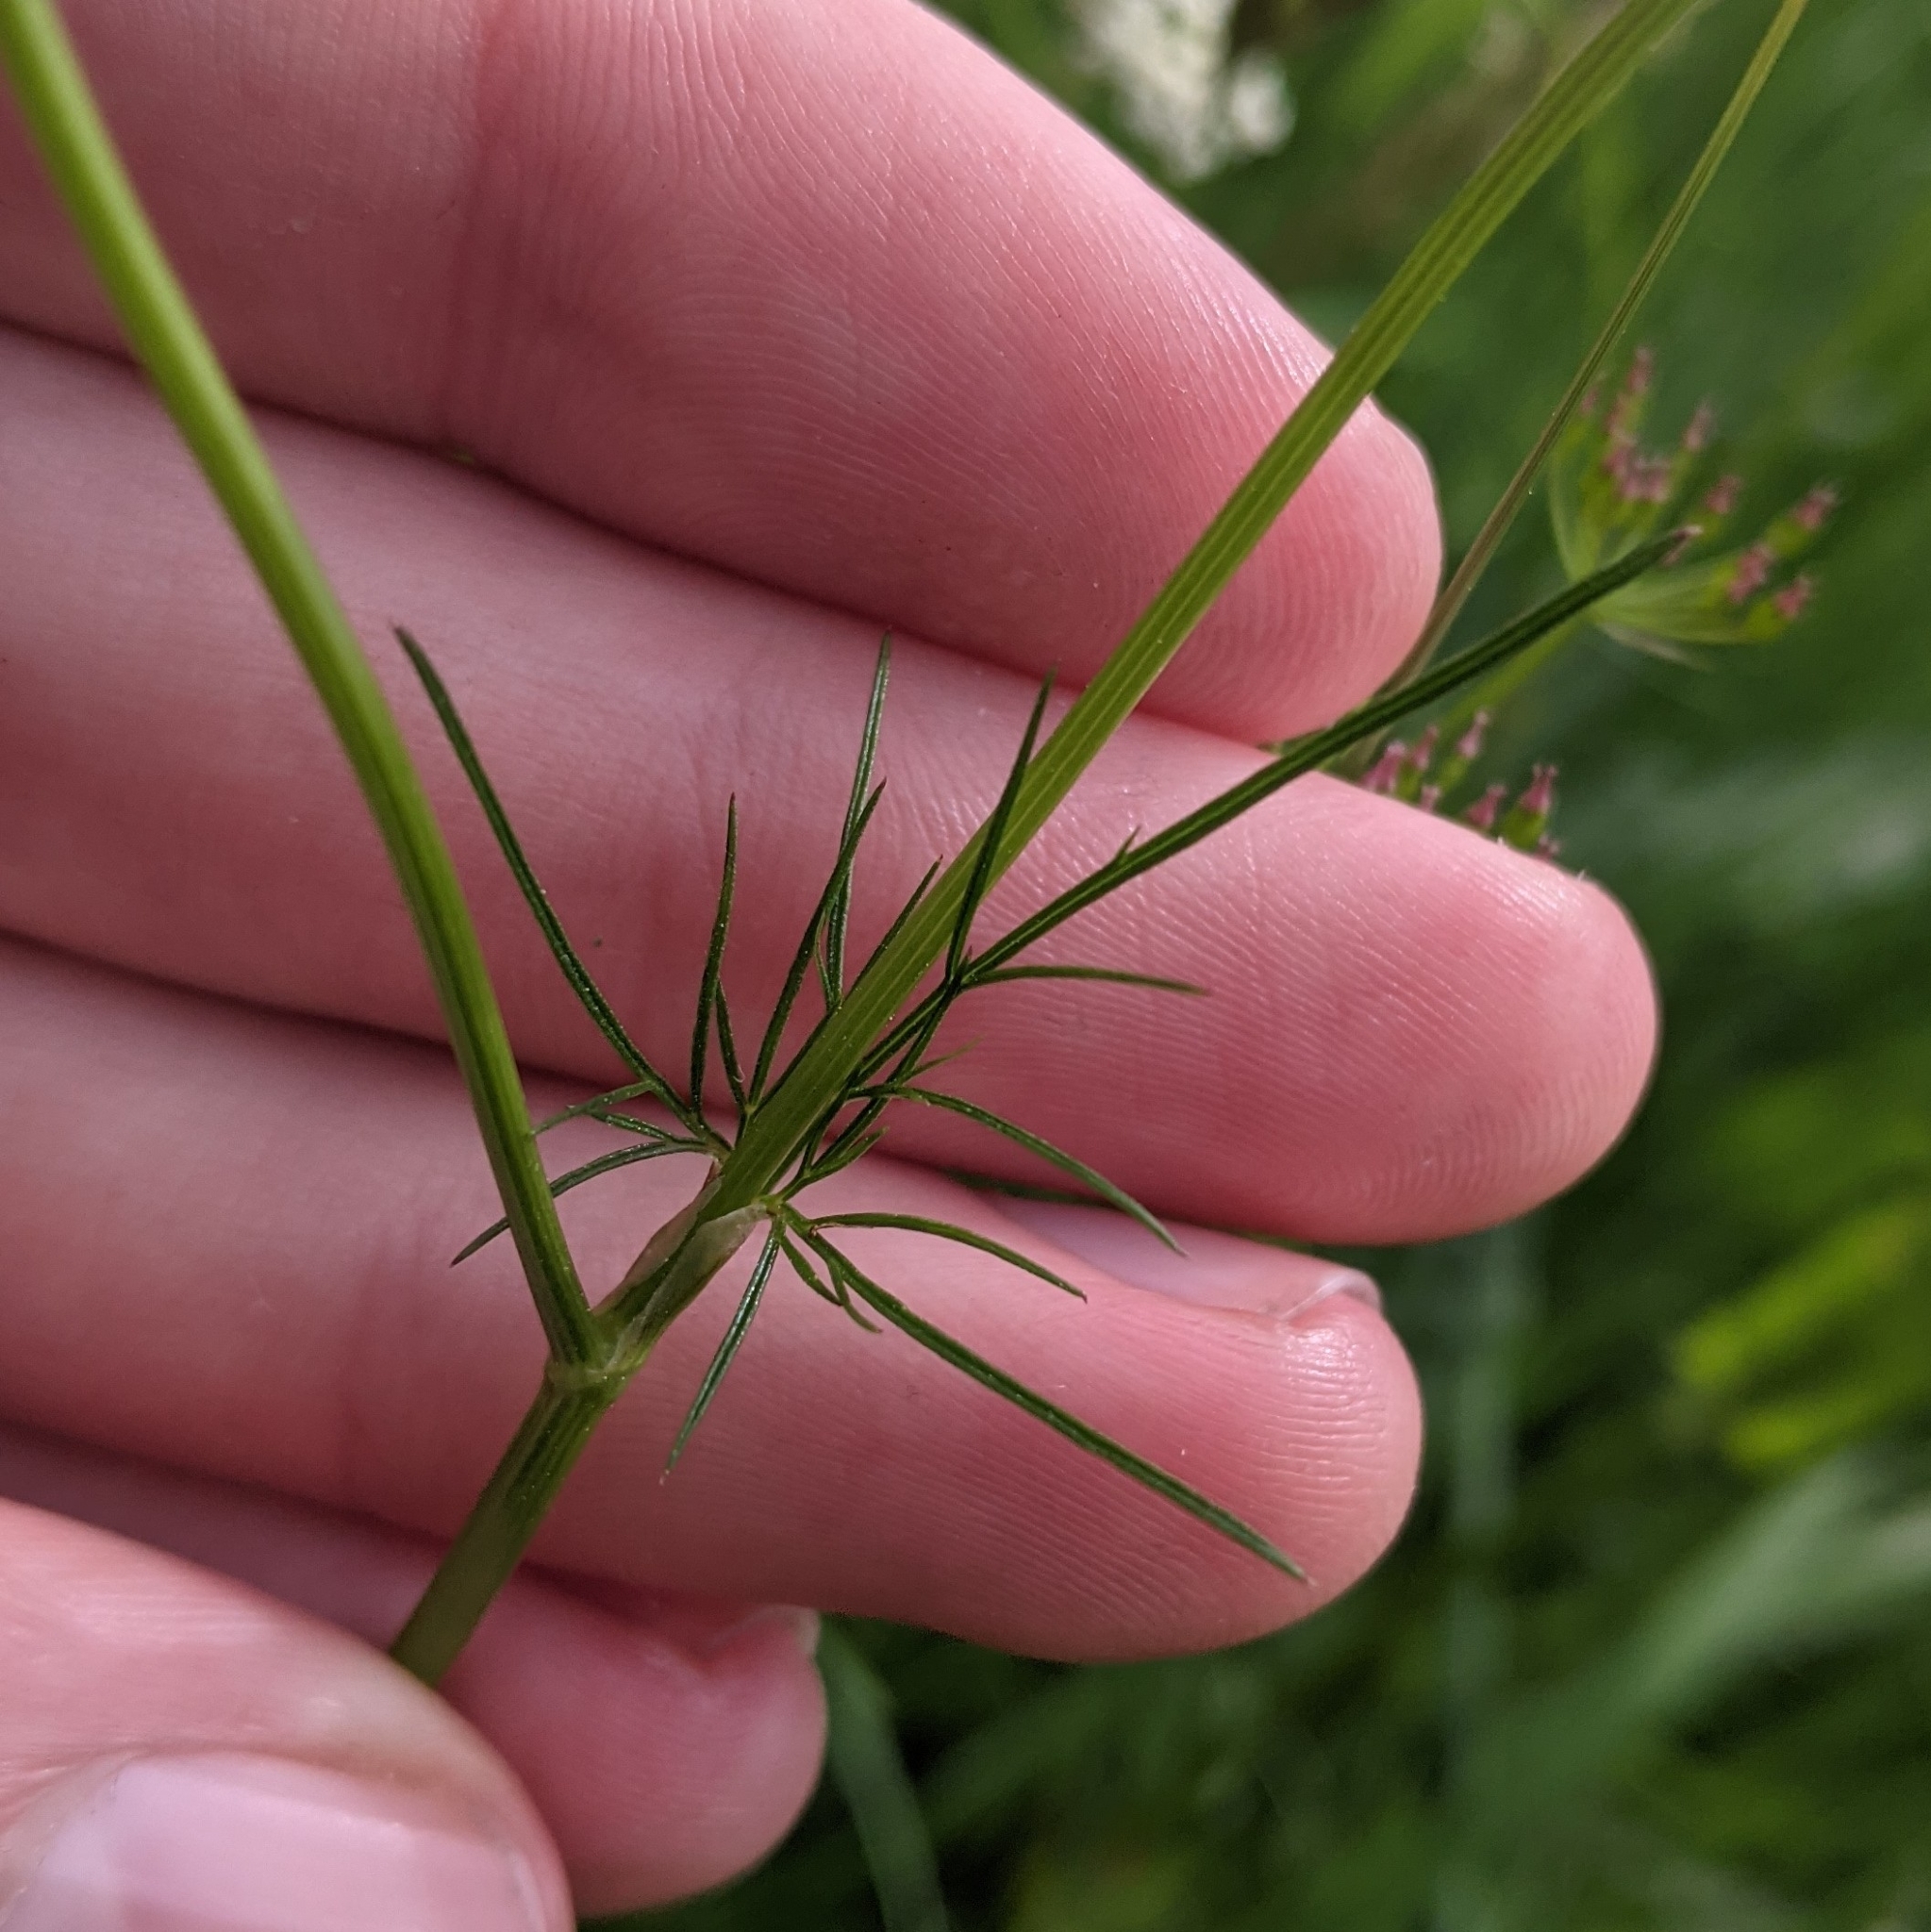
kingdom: Plantae
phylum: Tracheophyta
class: Magnoliopsida
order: Apiales
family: Apiaceae
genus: Conopodium
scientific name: Conopodium majus
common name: Pignut
